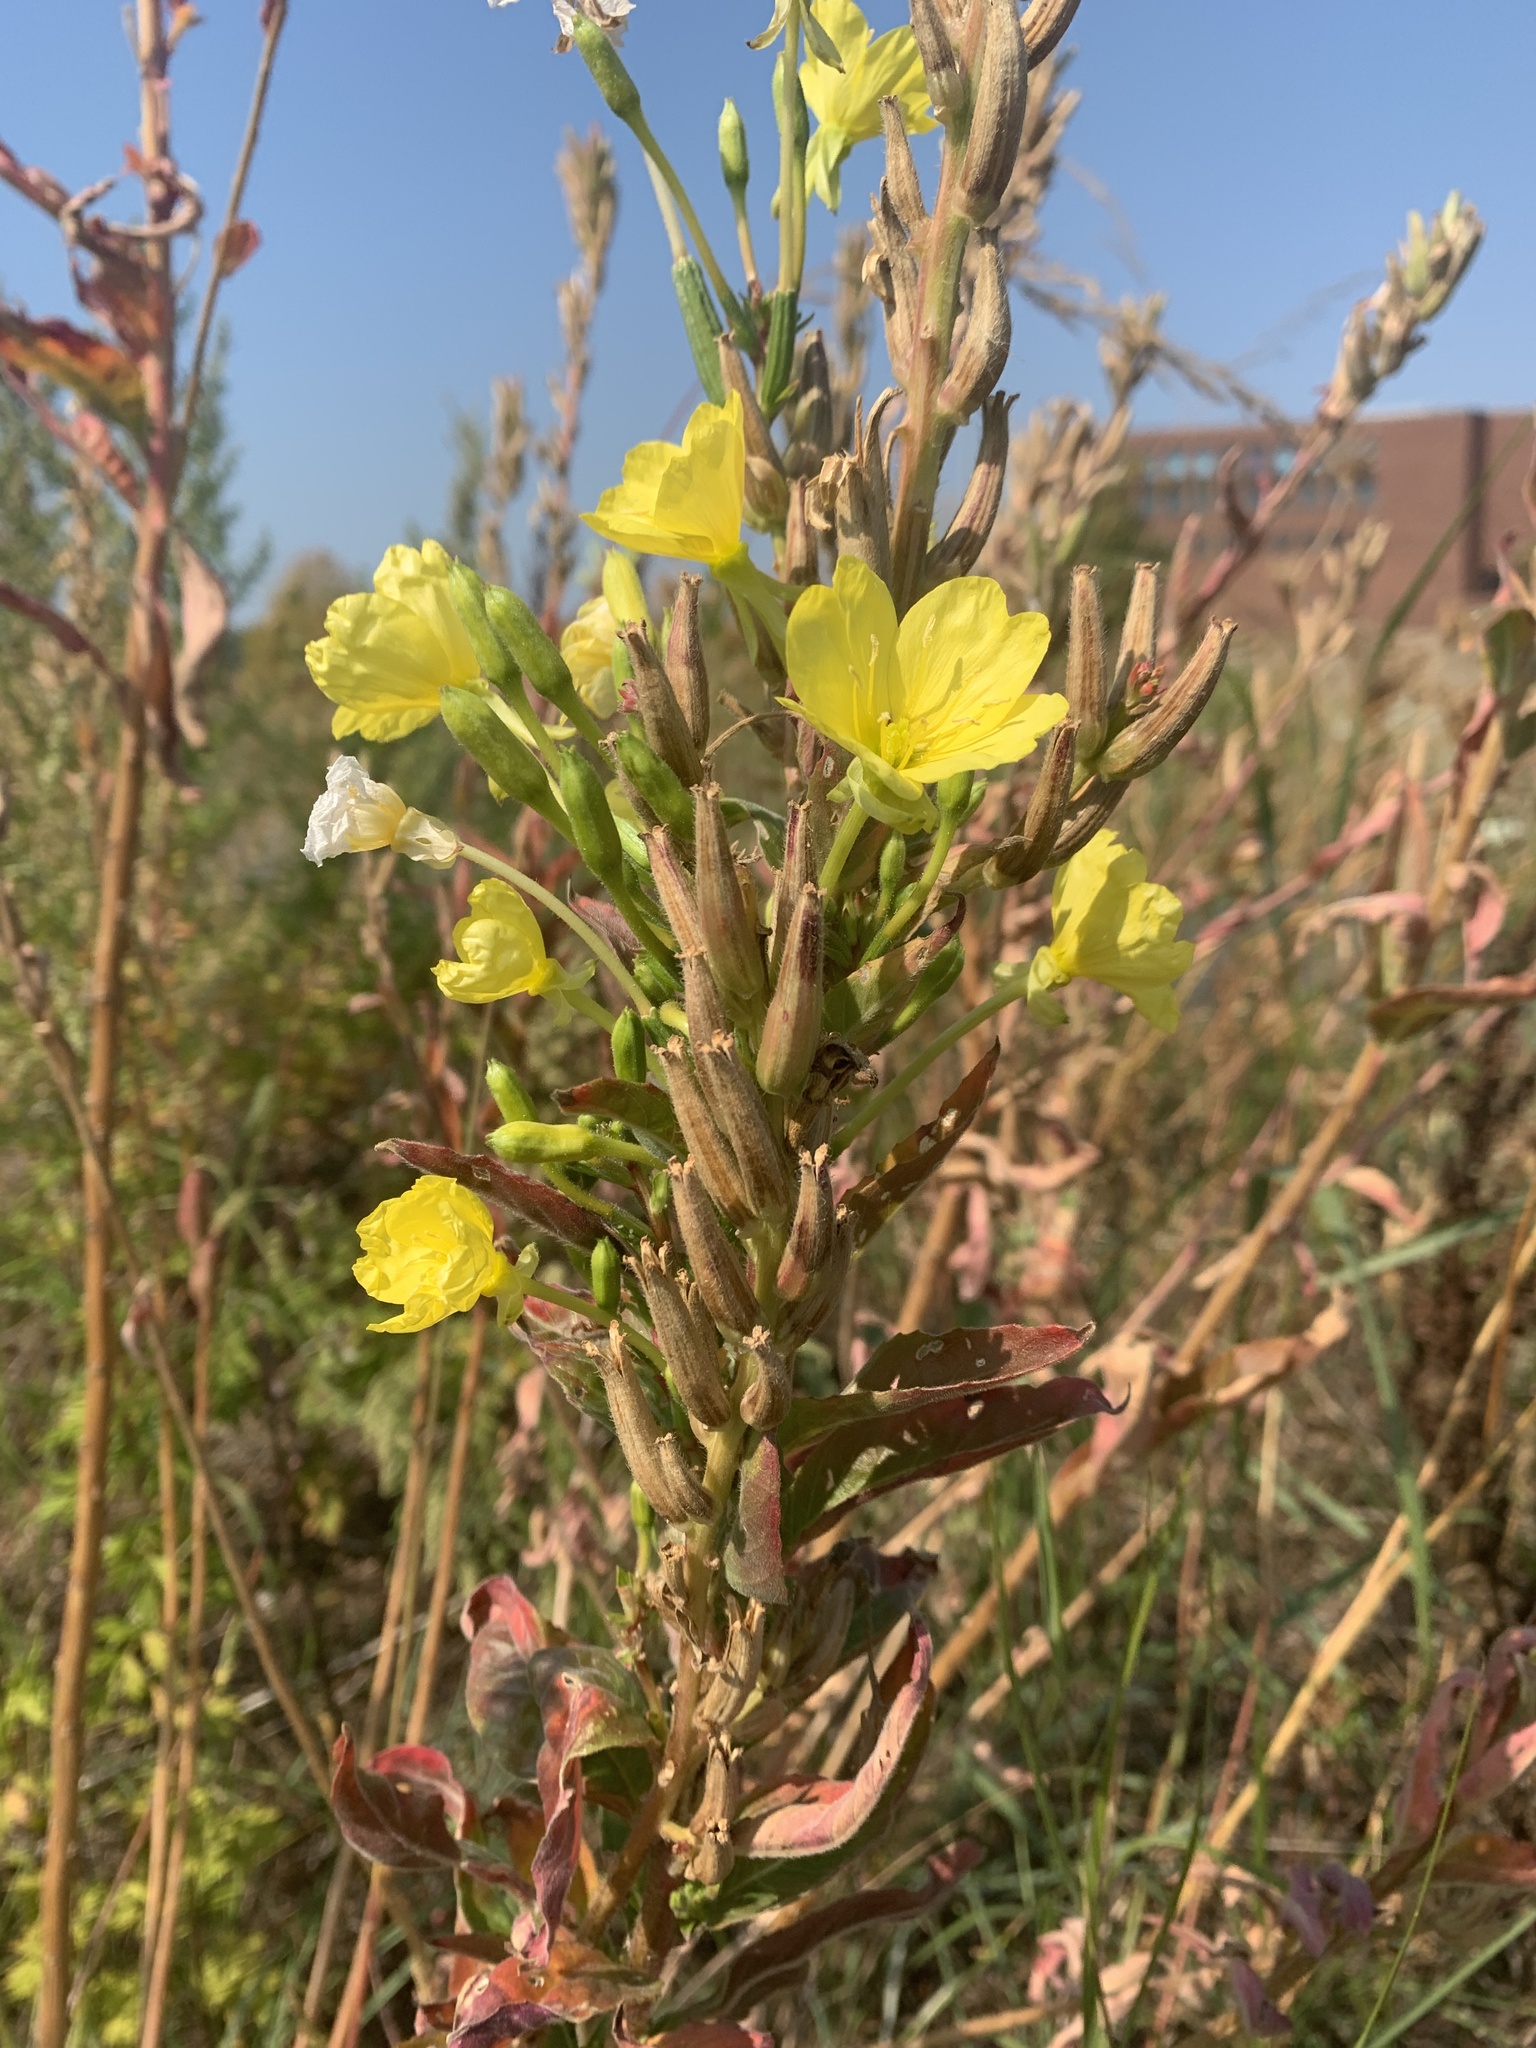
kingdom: Plantae
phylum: Tracheophyta
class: Magnoliopsida
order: Myrtales
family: Onagraceae
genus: Oenothera
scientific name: Oenothera biennis
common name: Common evening-primrose
